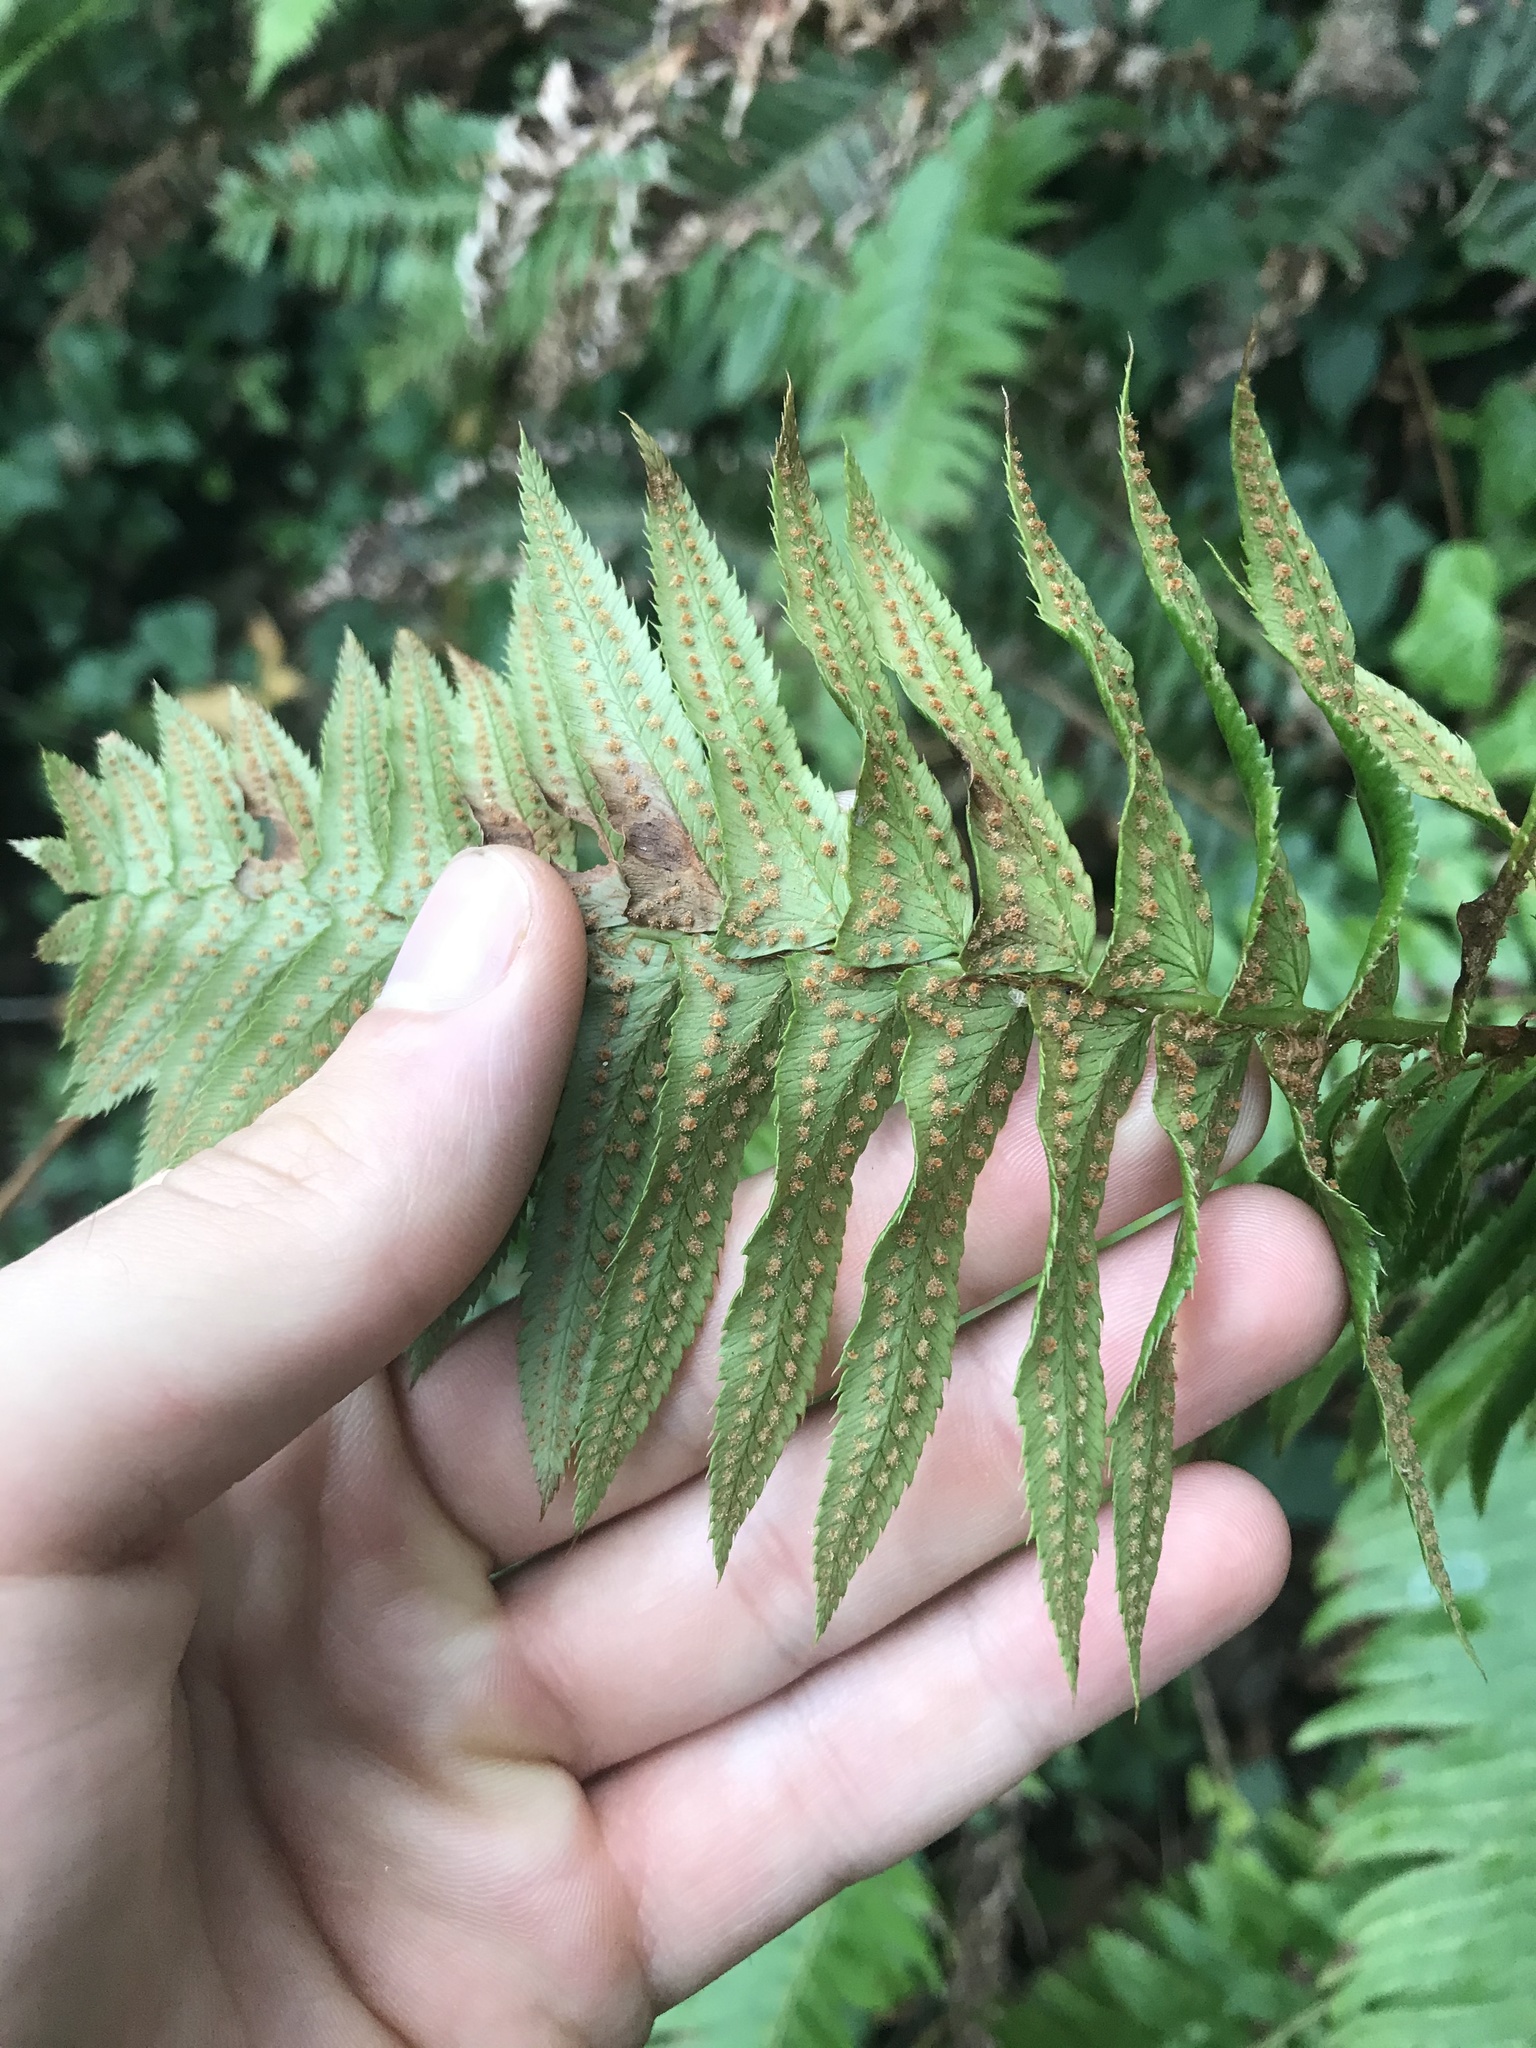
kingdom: Plantae
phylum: Tracheophyta
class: Polypodiopsida
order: Polypodiales
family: Dryopteridaceae
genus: Polystichum
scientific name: Polystichum munitum
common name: Western sword-fern
